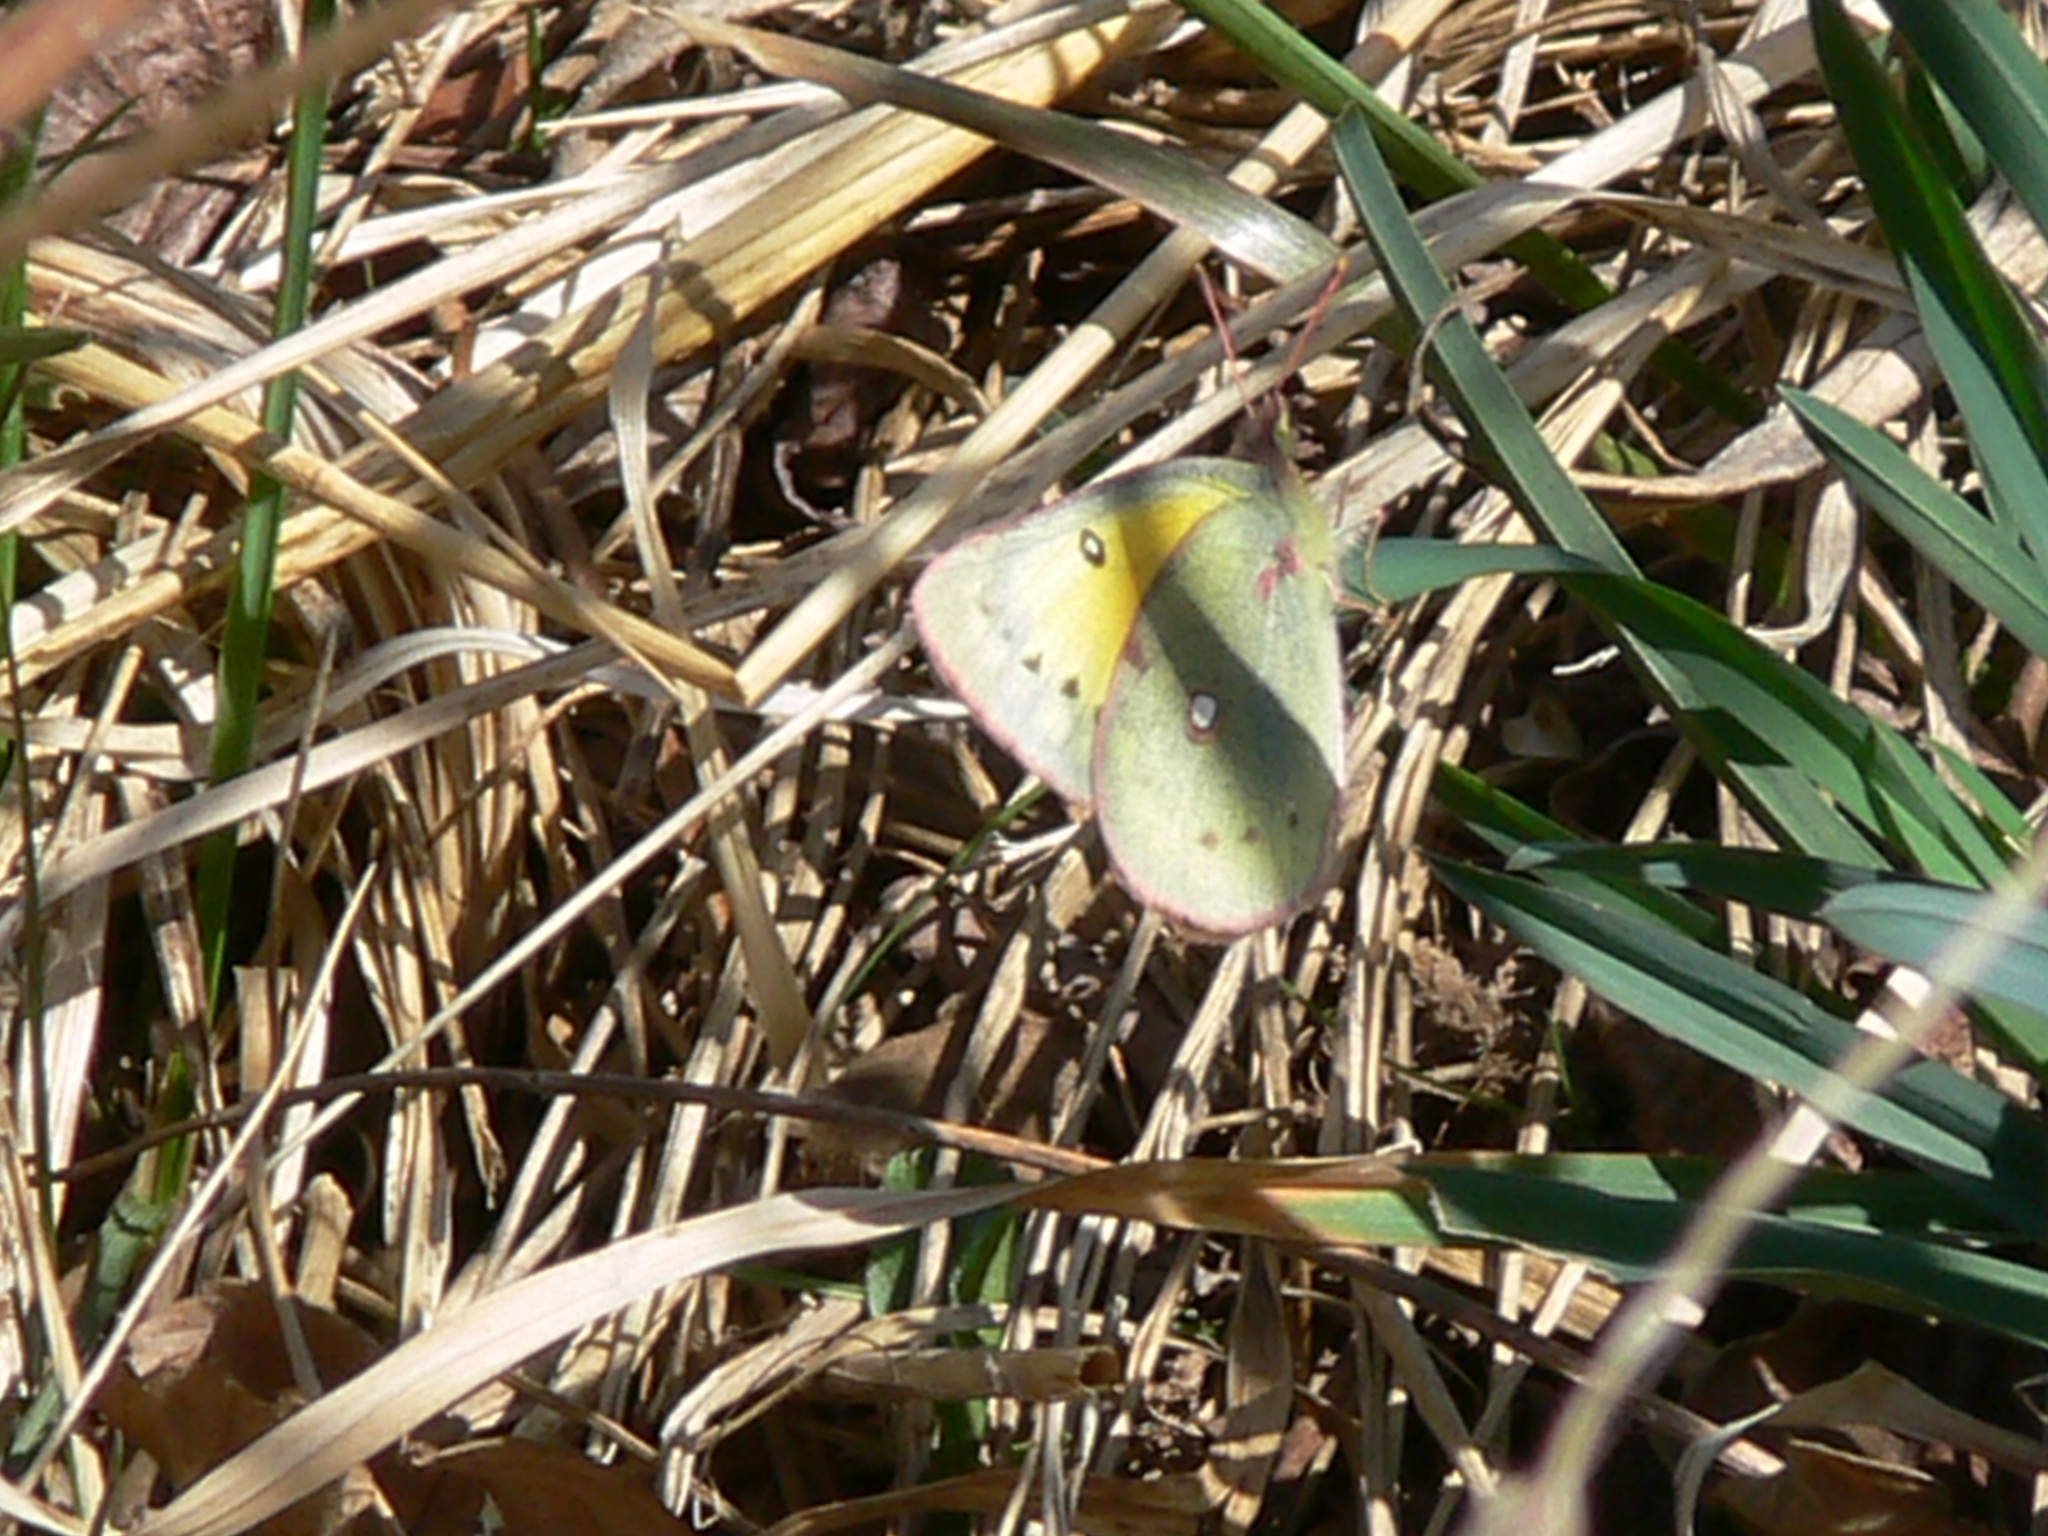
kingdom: Animalia
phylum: Arthropoda
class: Insecta
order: Lepidoptera
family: Pieridae
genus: Colias
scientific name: Colias eurytheme
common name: Alfalfa butterfly
